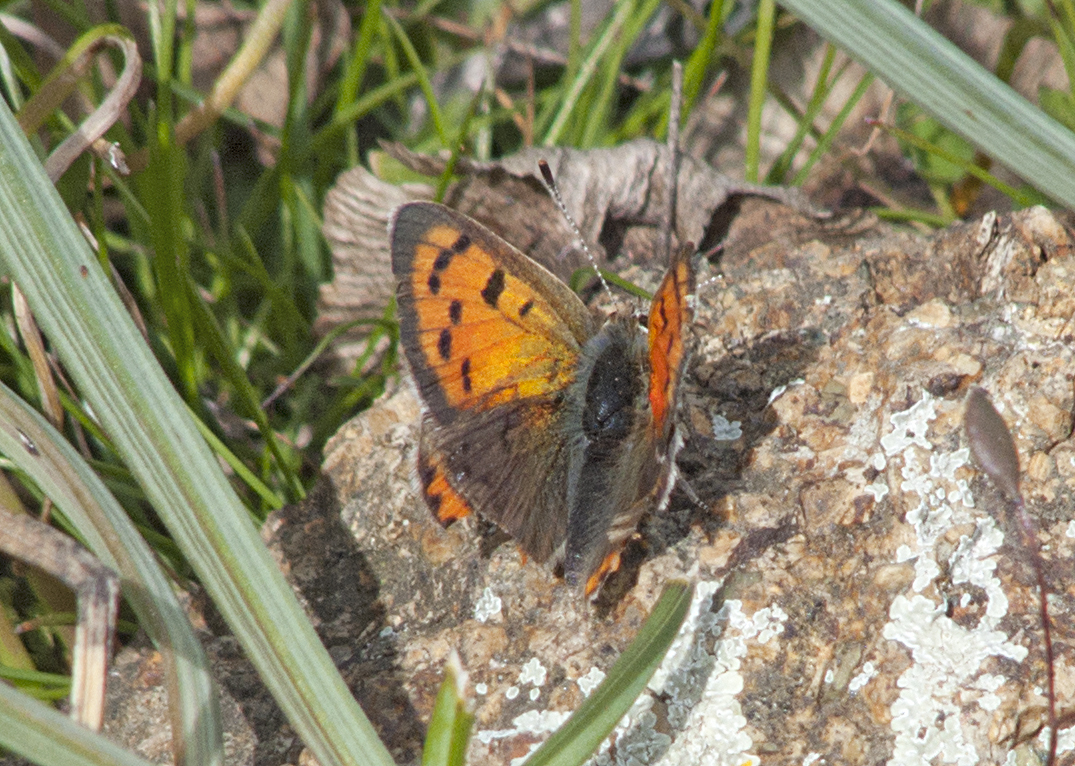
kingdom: Animalia
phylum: Arthropoda
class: Insecta
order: Lepidoptera
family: Lycaenidae
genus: Lycaena
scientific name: Lycaena phlaeas
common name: Small copper
